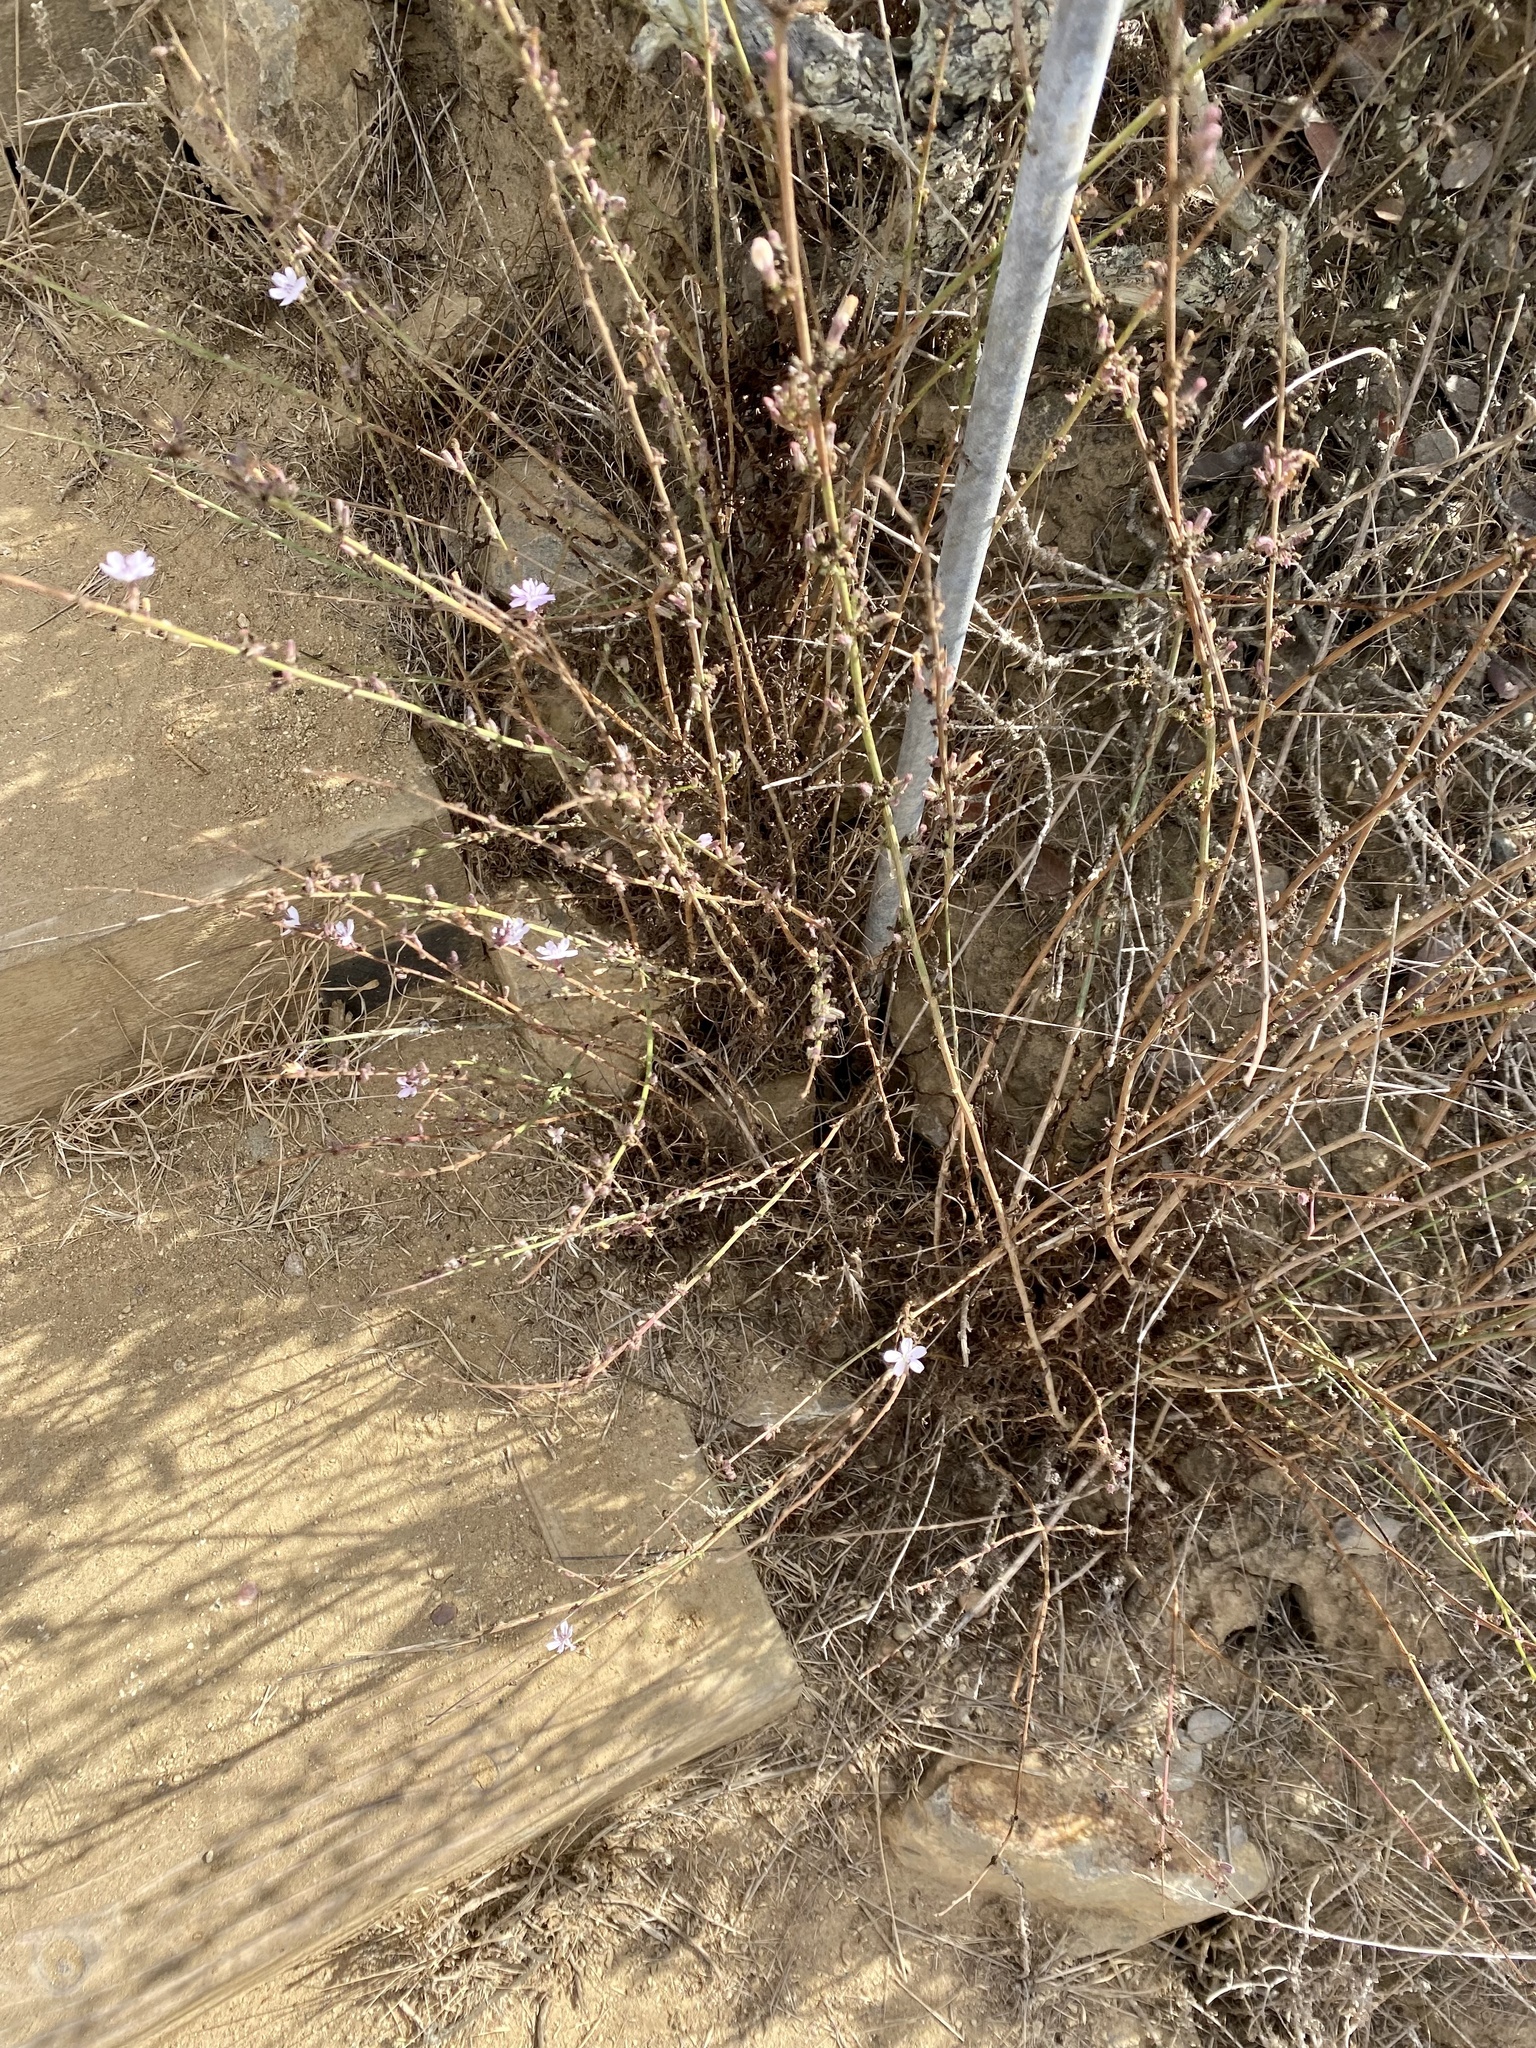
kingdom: Plantae
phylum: Tracheophyta
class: Magnoliopsida
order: Asterales
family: Asteraceae
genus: Stephanomeria
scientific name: Stephanomeria diegensis
